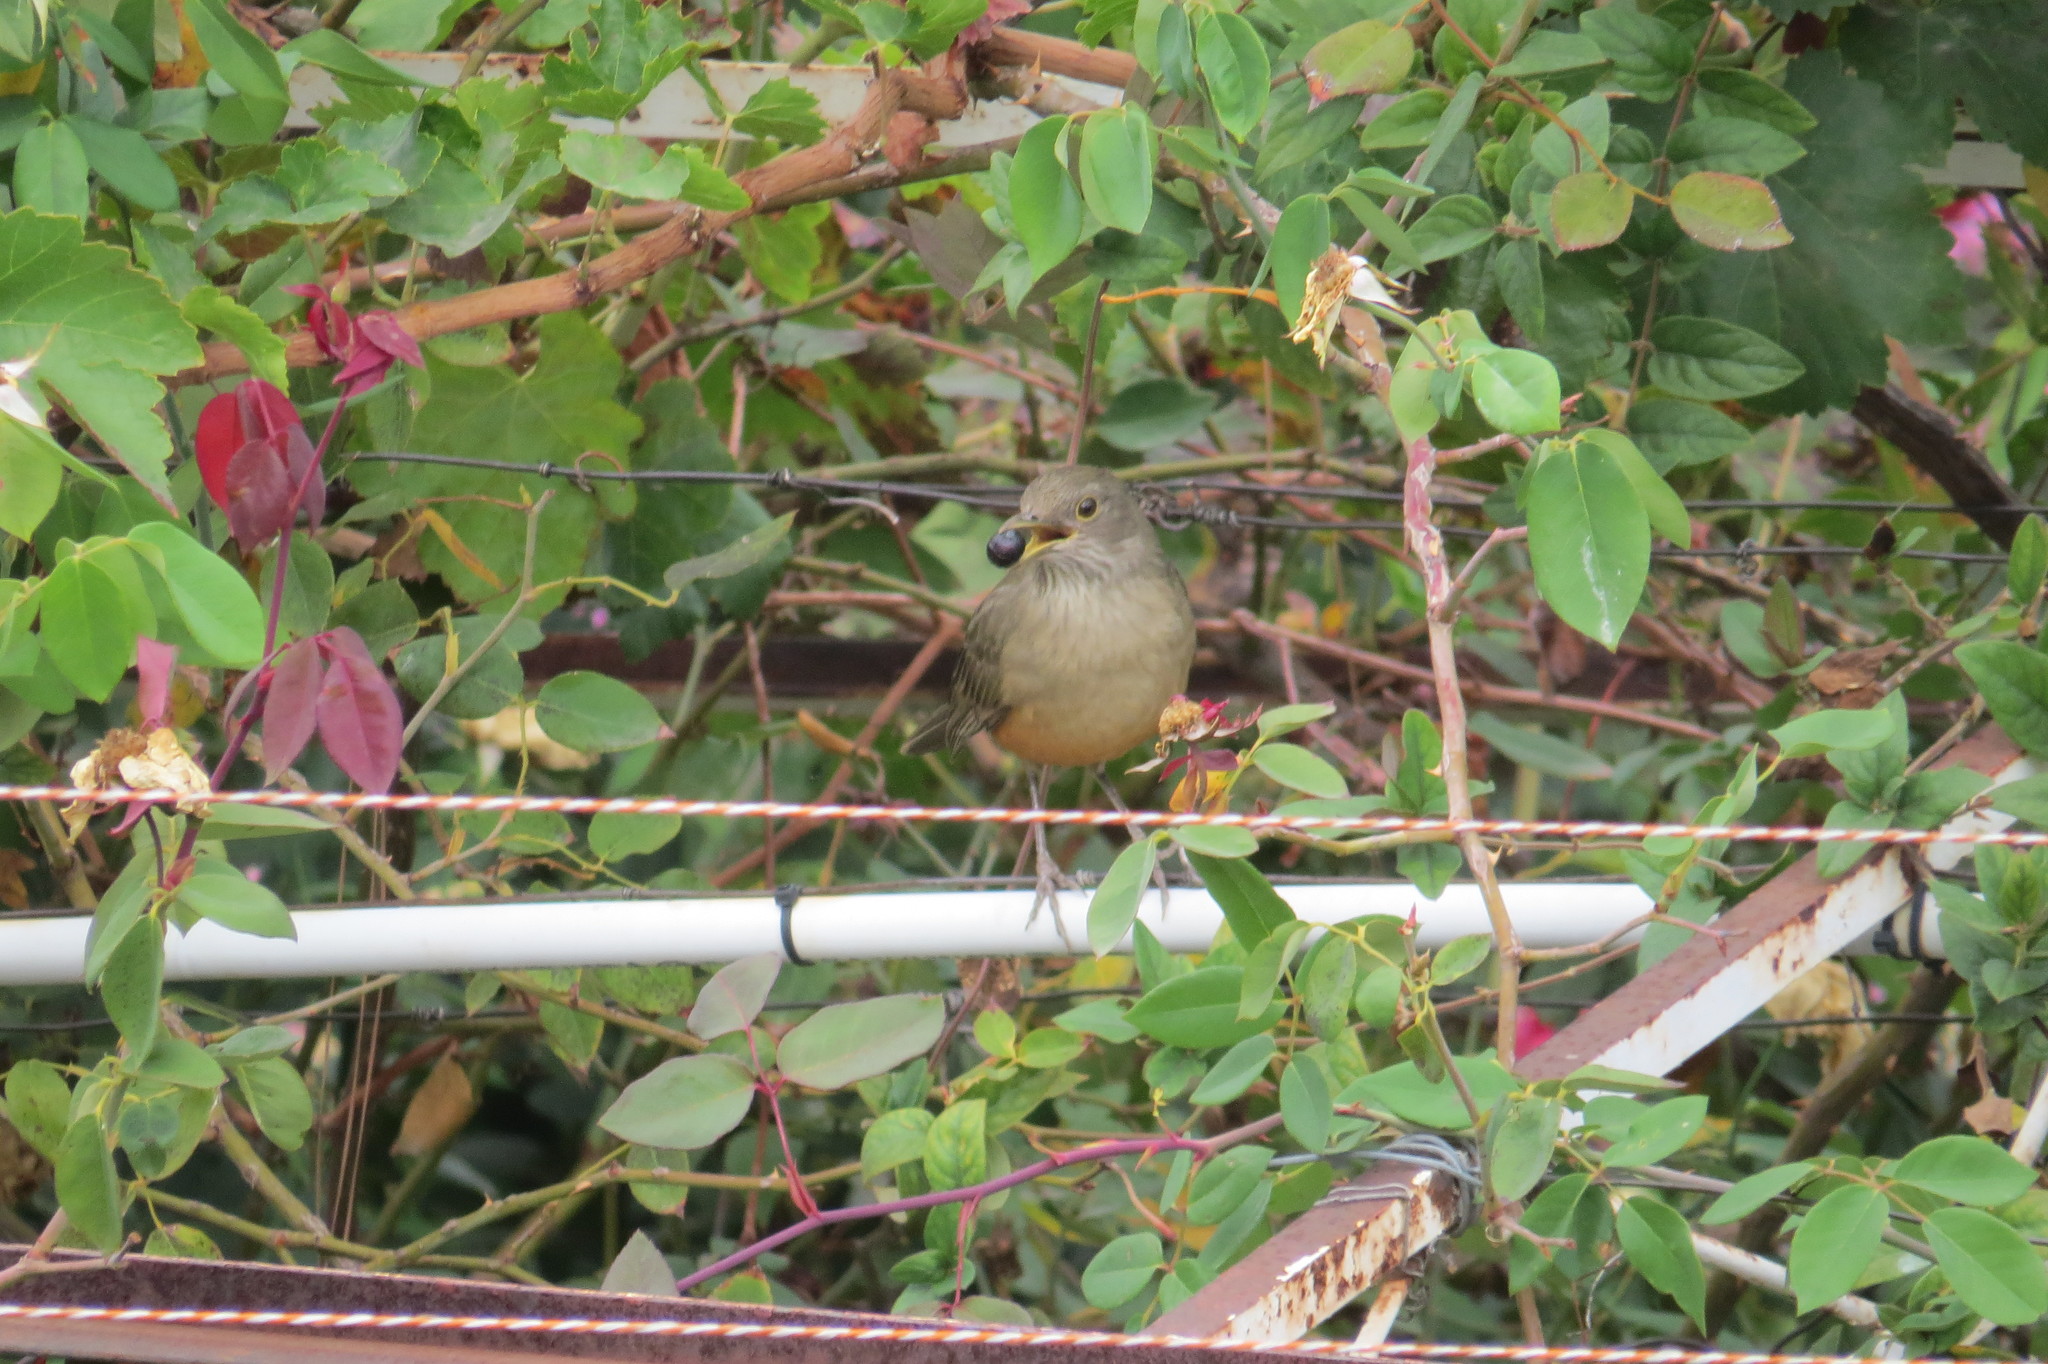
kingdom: Animalia
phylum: Chordata
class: Aves
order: Passeriformes
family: Turdidae
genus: Turdus
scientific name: Turdus rufiventris
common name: Rufous-bellied thrush
